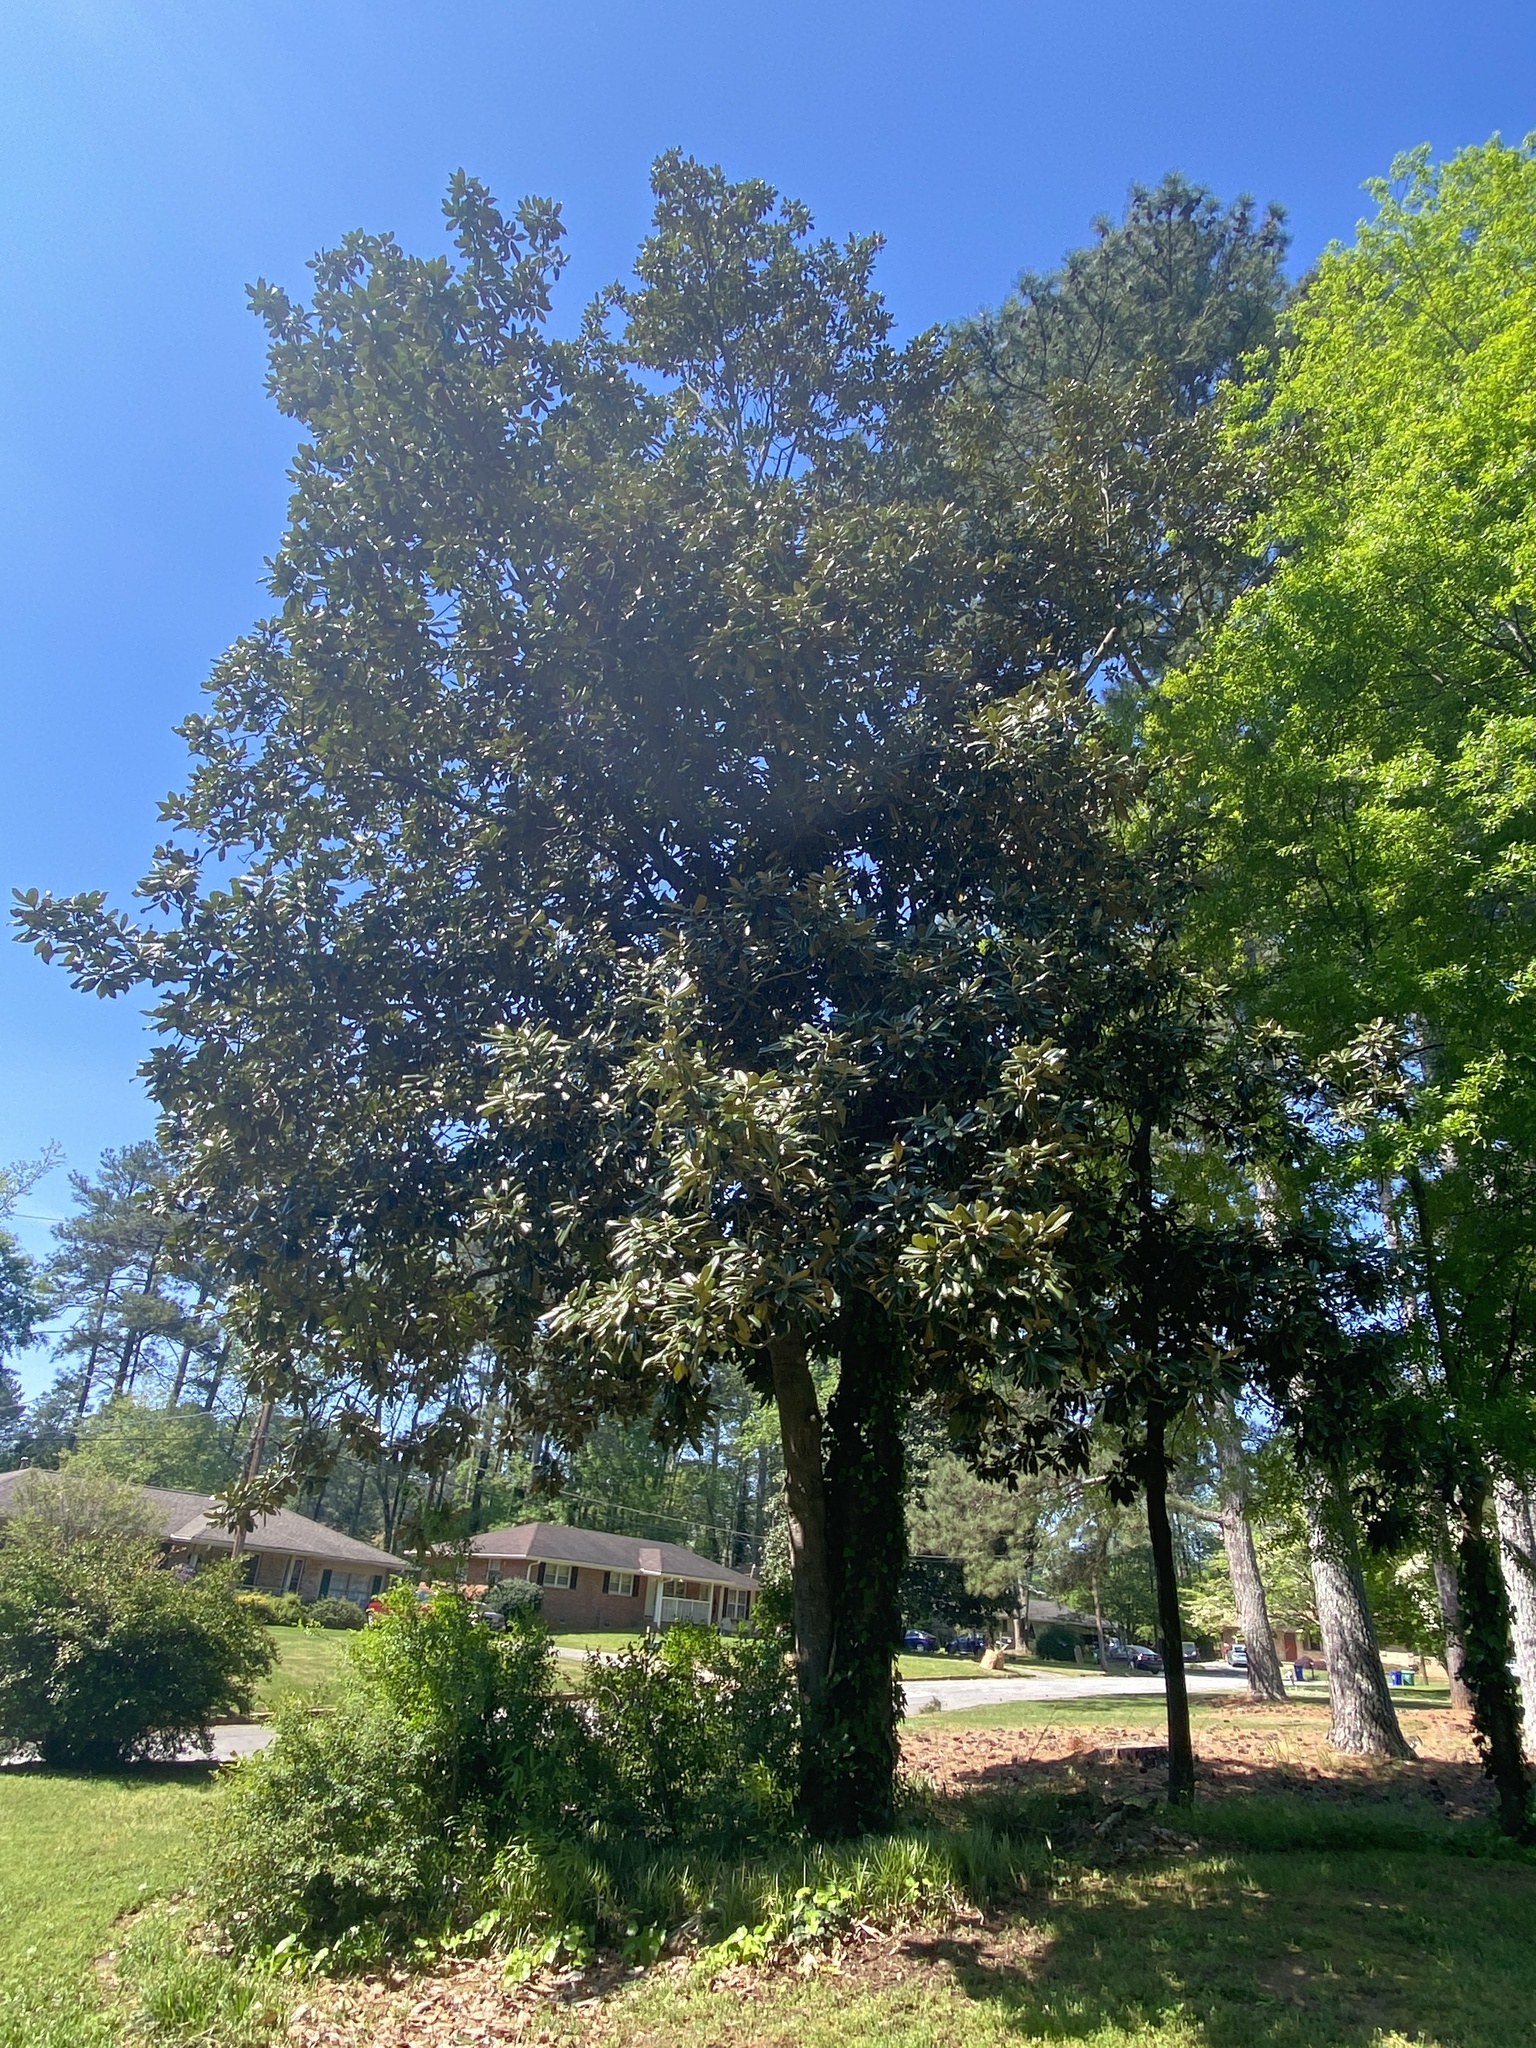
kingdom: Plantae
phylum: Tracheophyta
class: Magnoliopsida
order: Magnoliales
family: Magnoliaceae
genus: Magnolia
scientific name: Magnolia grandiflora
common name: Southern magnolia
